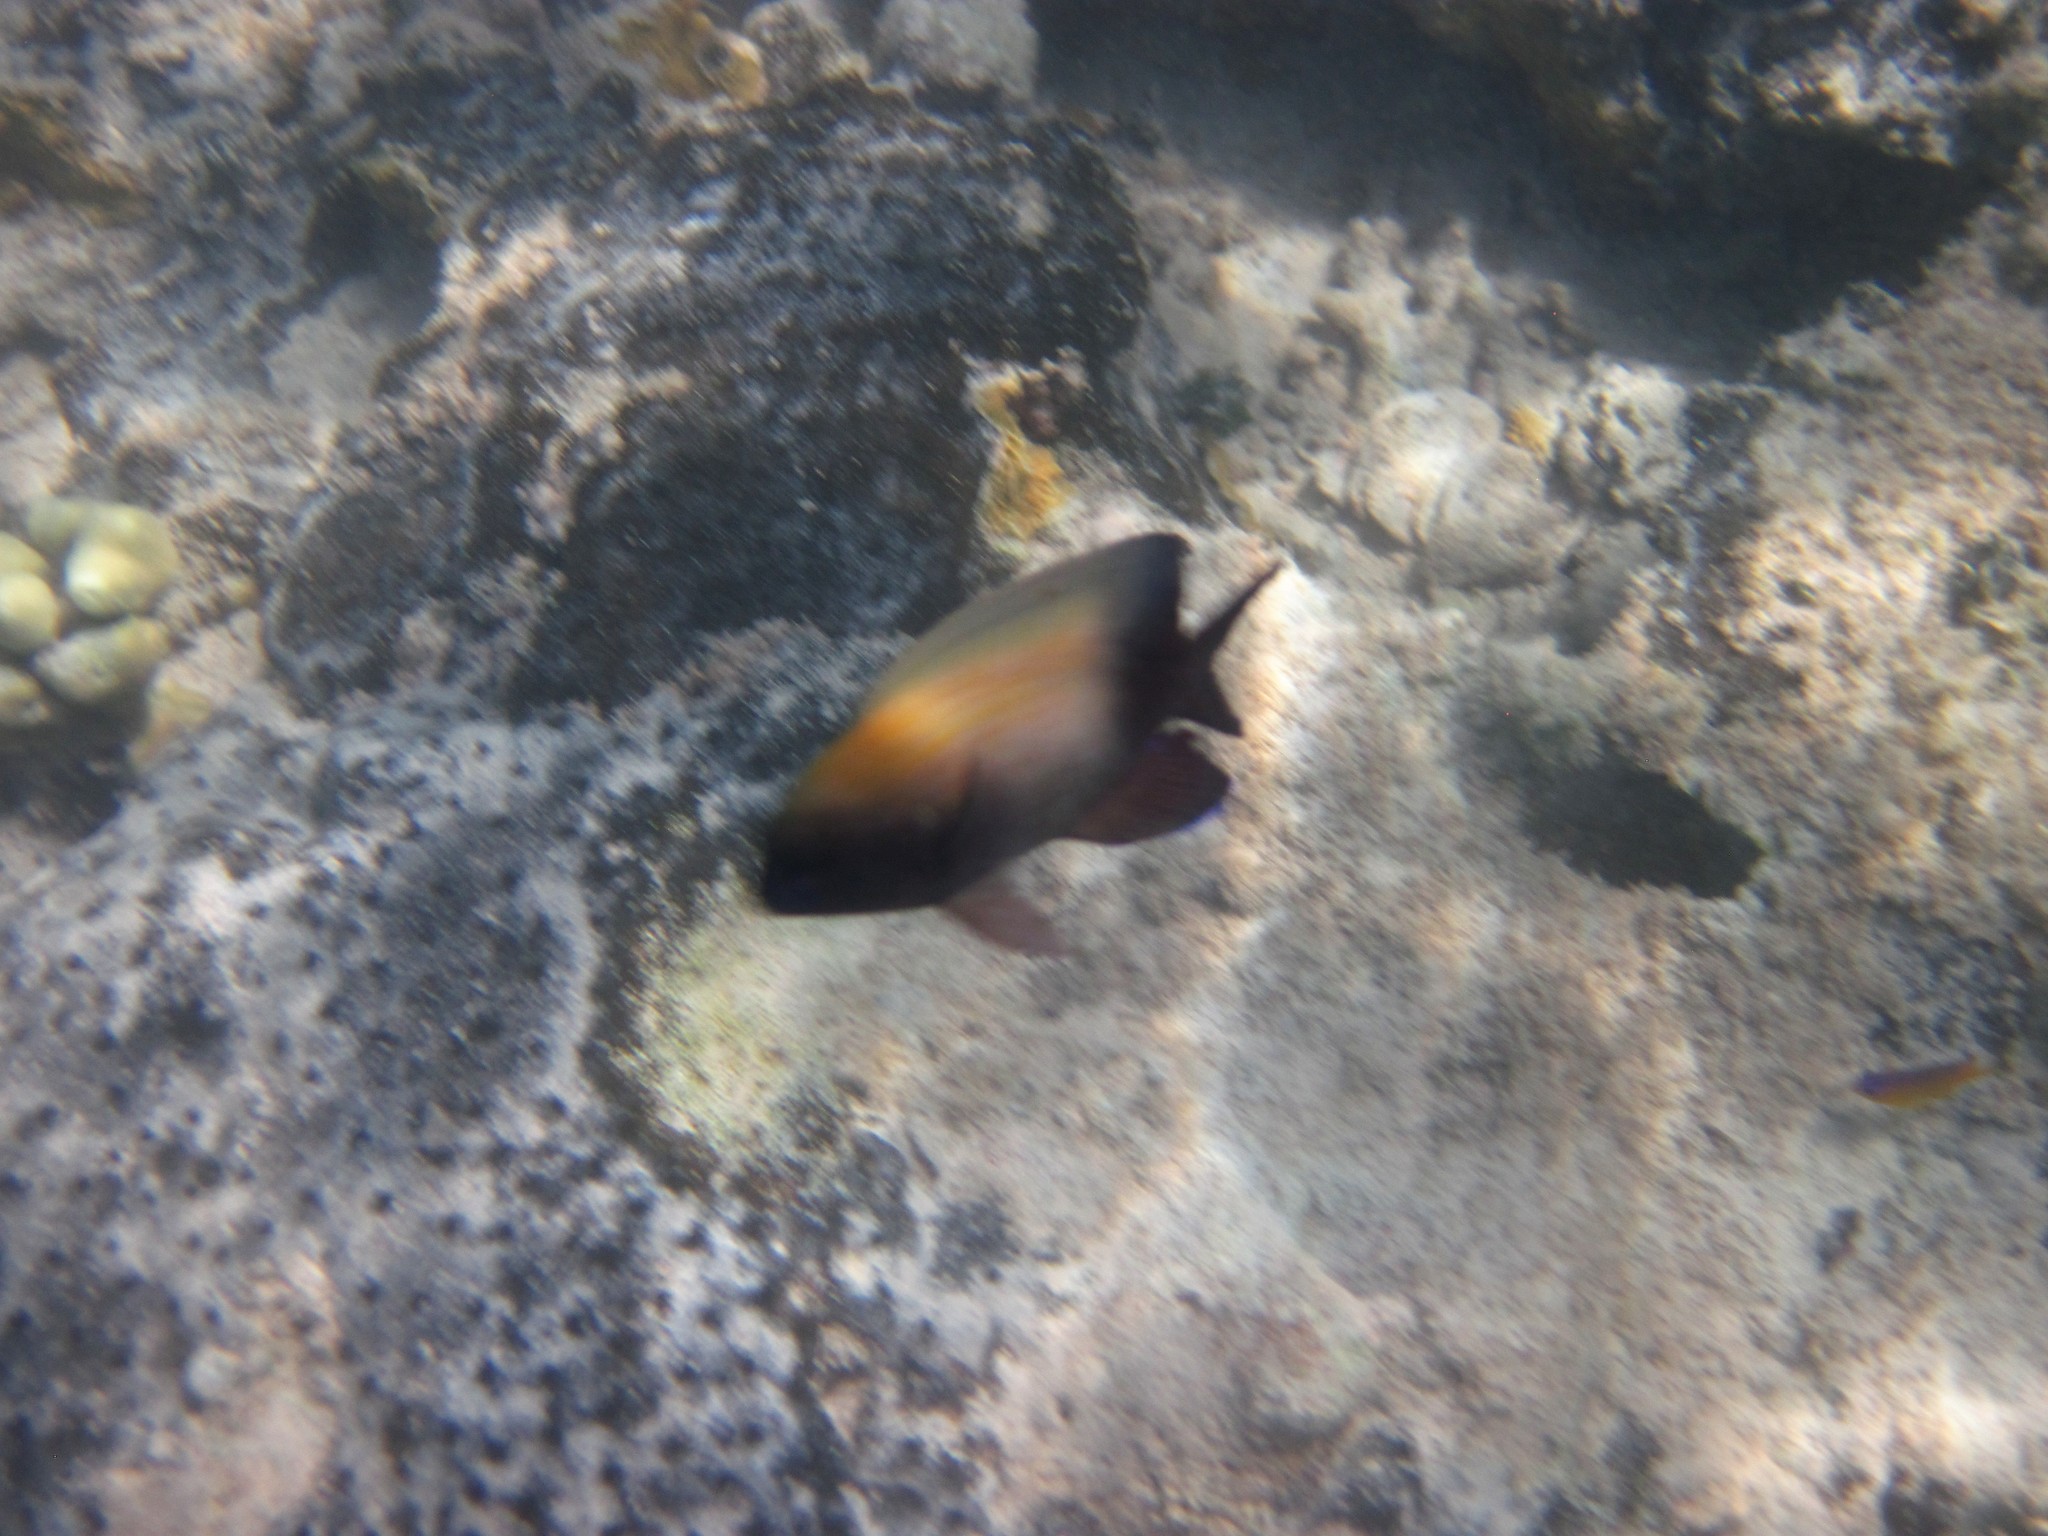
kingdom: Animalia
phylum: Chordata
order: Perciformes
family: Pomacentridae
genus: Stegastes
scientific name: Stegastes leucostictus
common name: Beaugregory
